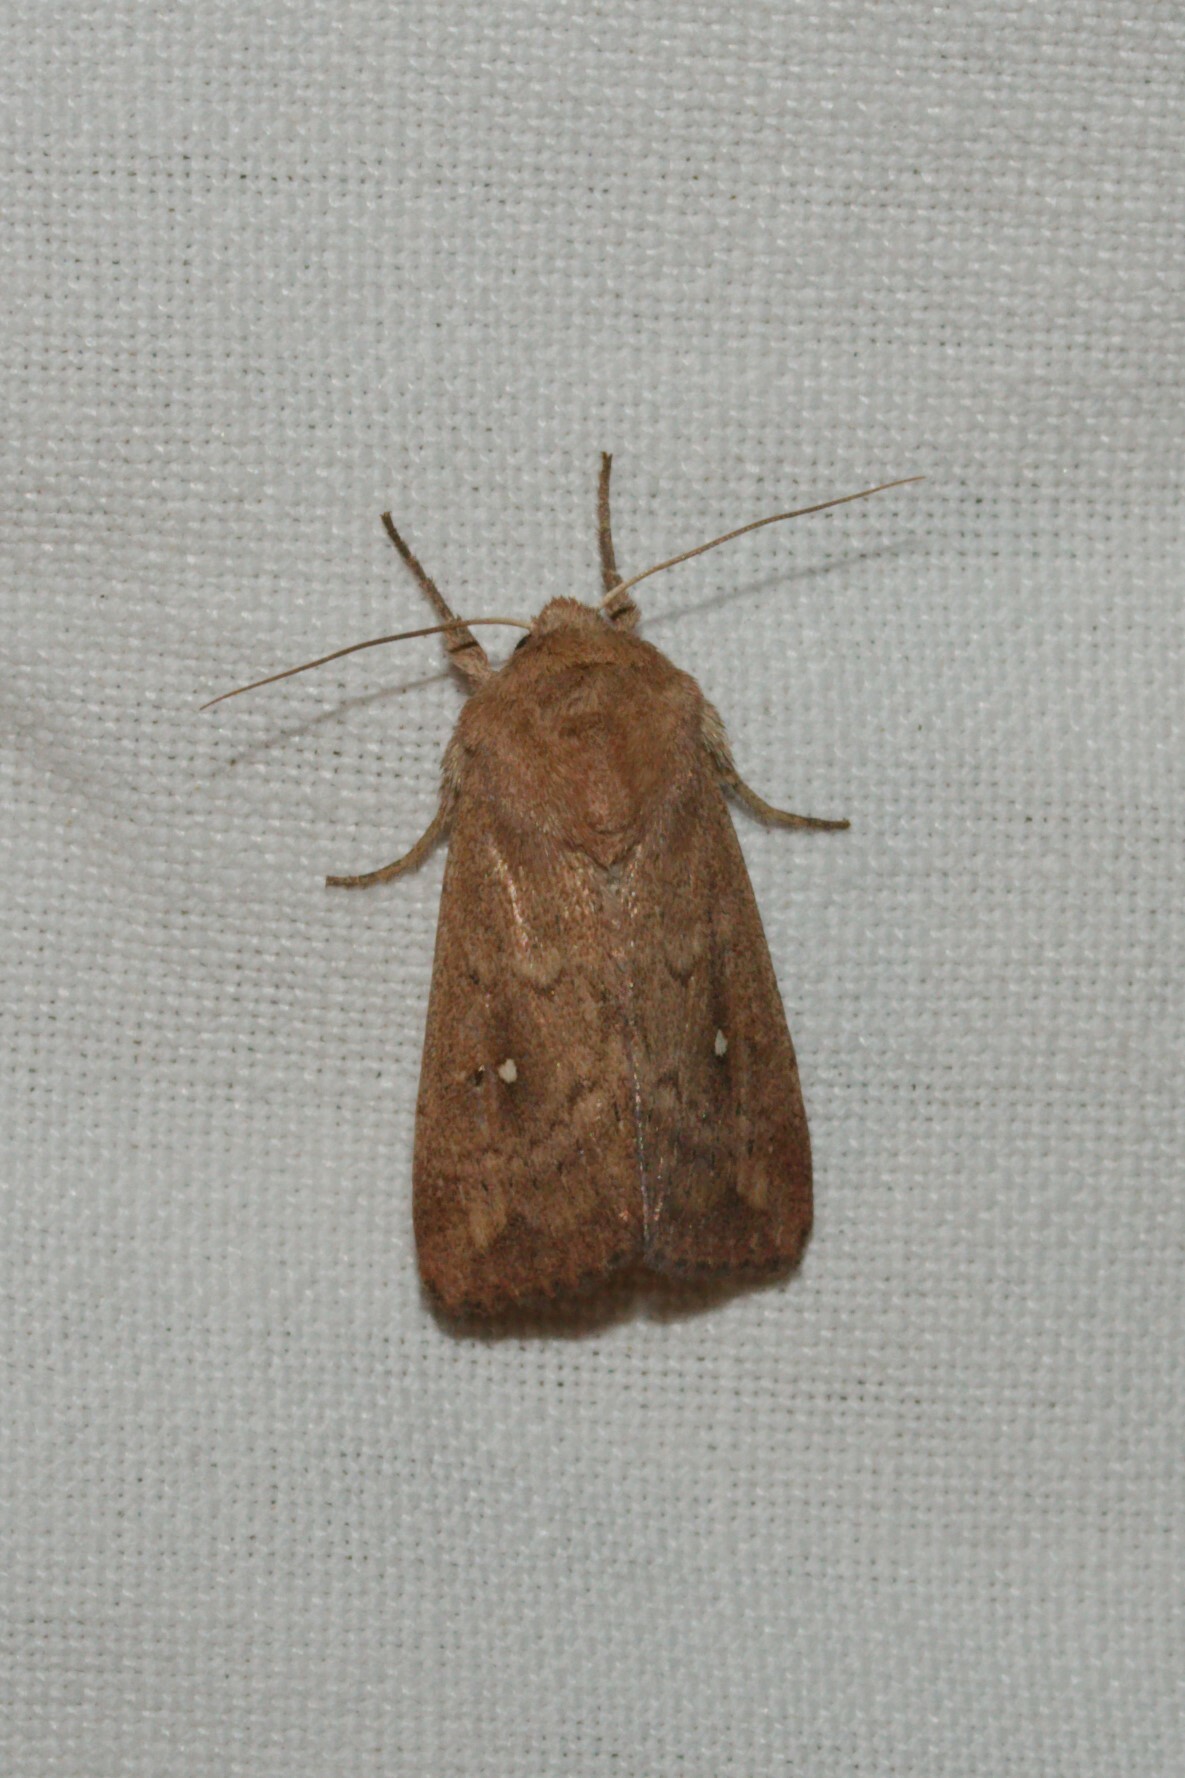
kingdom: Animalia
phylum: Arthropoda
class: Insecta
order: Lepidoptera
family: Noctuidae
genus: Mythimna
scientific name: Mythimna albipuncta
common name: White-point
